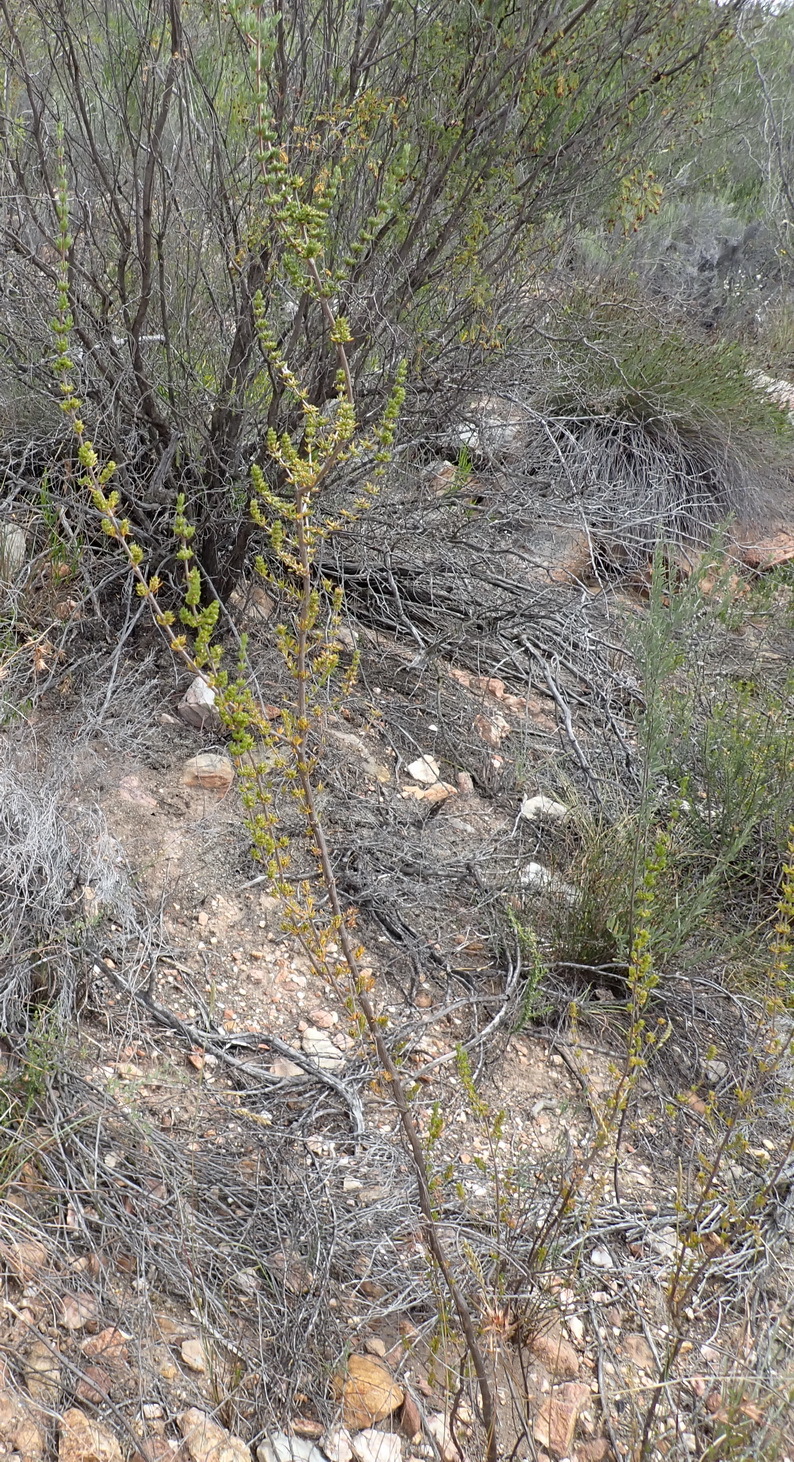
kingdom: Plantae
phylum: Tracheophyta
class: Magnoliopsida
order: Gentianales
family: Rubiaceae
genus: Anthospermum
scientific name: Anthospermum paniculatum
